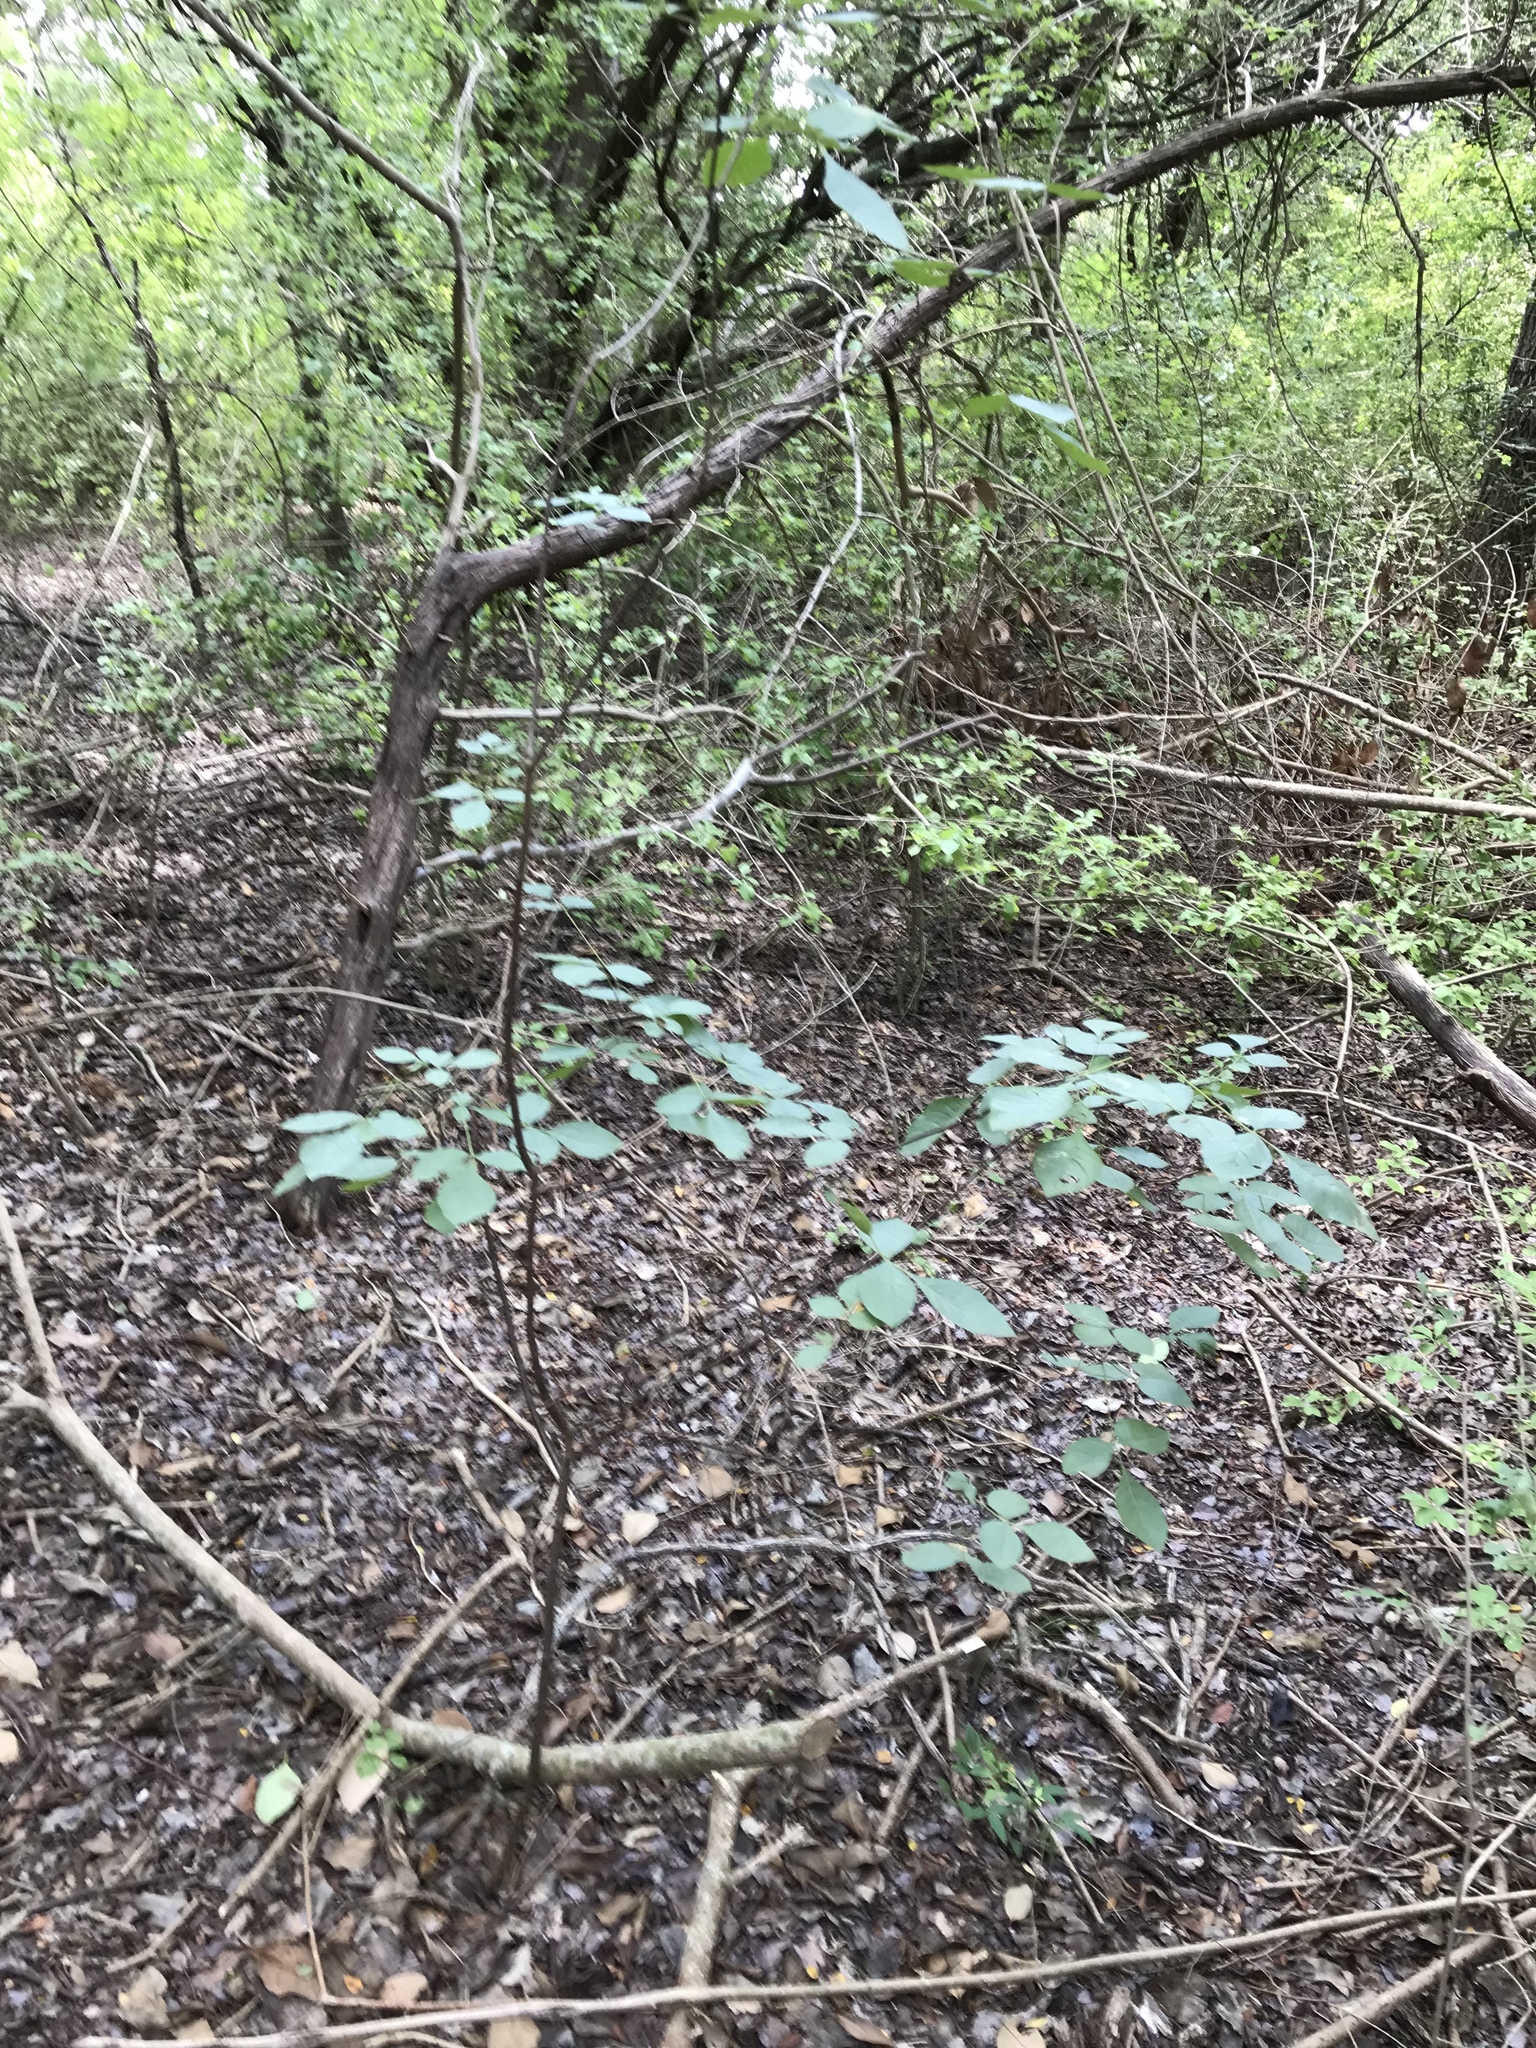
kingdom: Plantae
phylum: Tracheophyta
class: Magnoliopsida
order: Sapindales
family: Rutaceae
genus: Ptelea
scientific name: Ptelea trifoliata
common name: Common hop-tree
